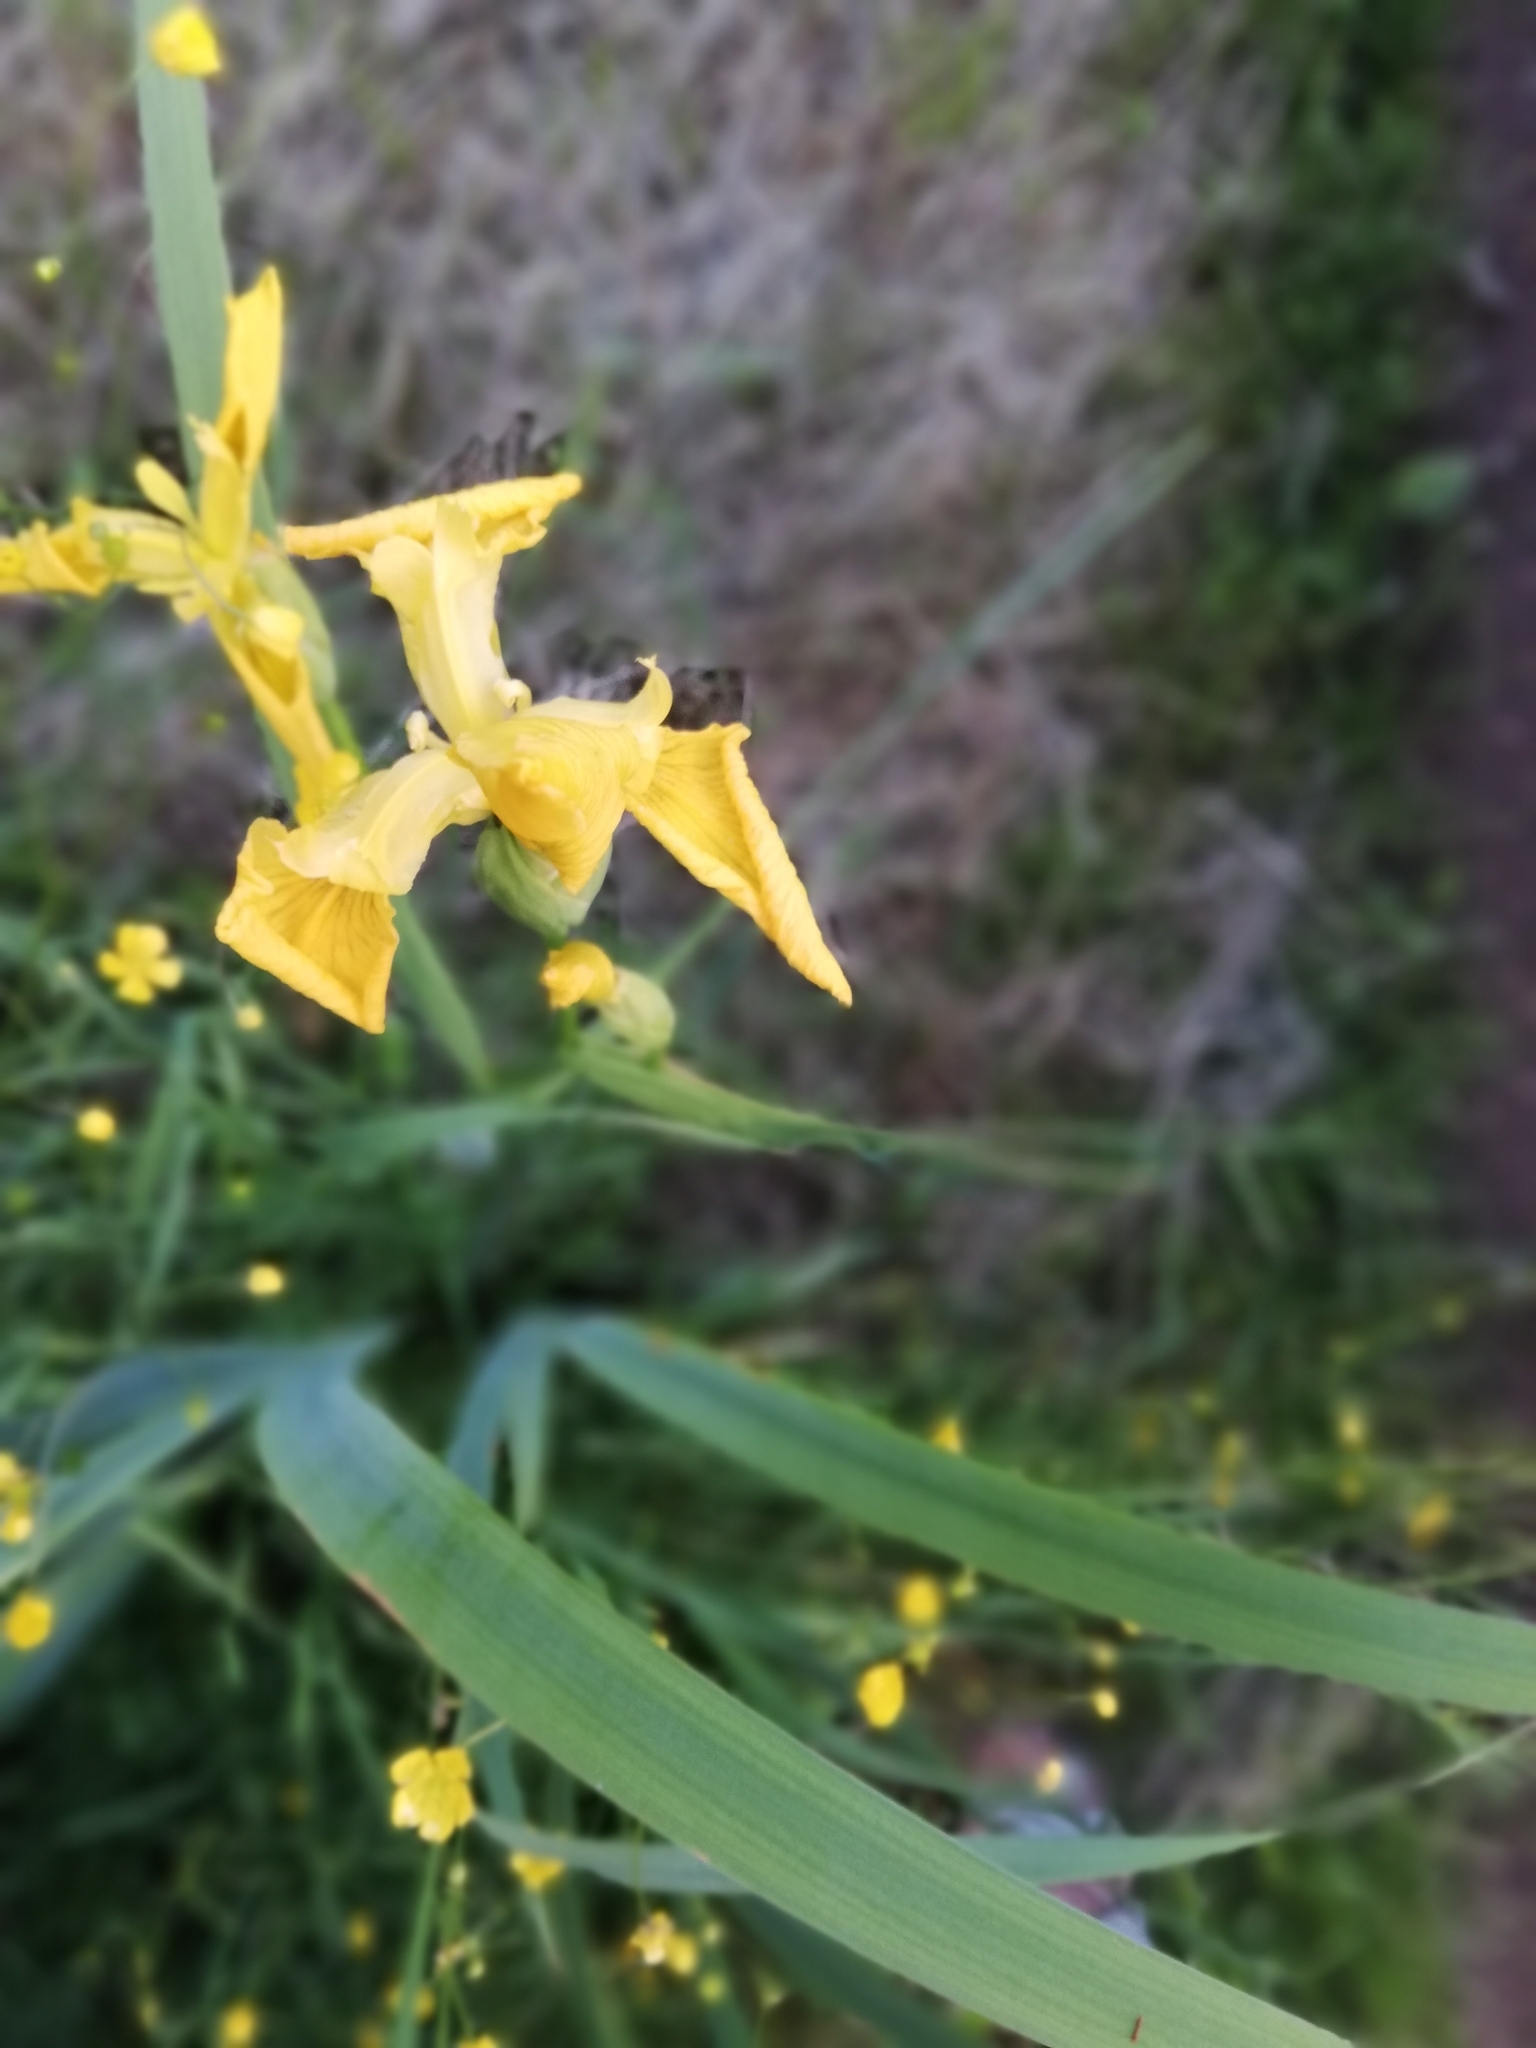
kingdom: Plantae
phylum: Tracheophyta
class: Liliopsida
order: Asparagales
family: Iridaceae
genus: Iris
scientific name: Iris pseudacorus
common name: Yellow flag
